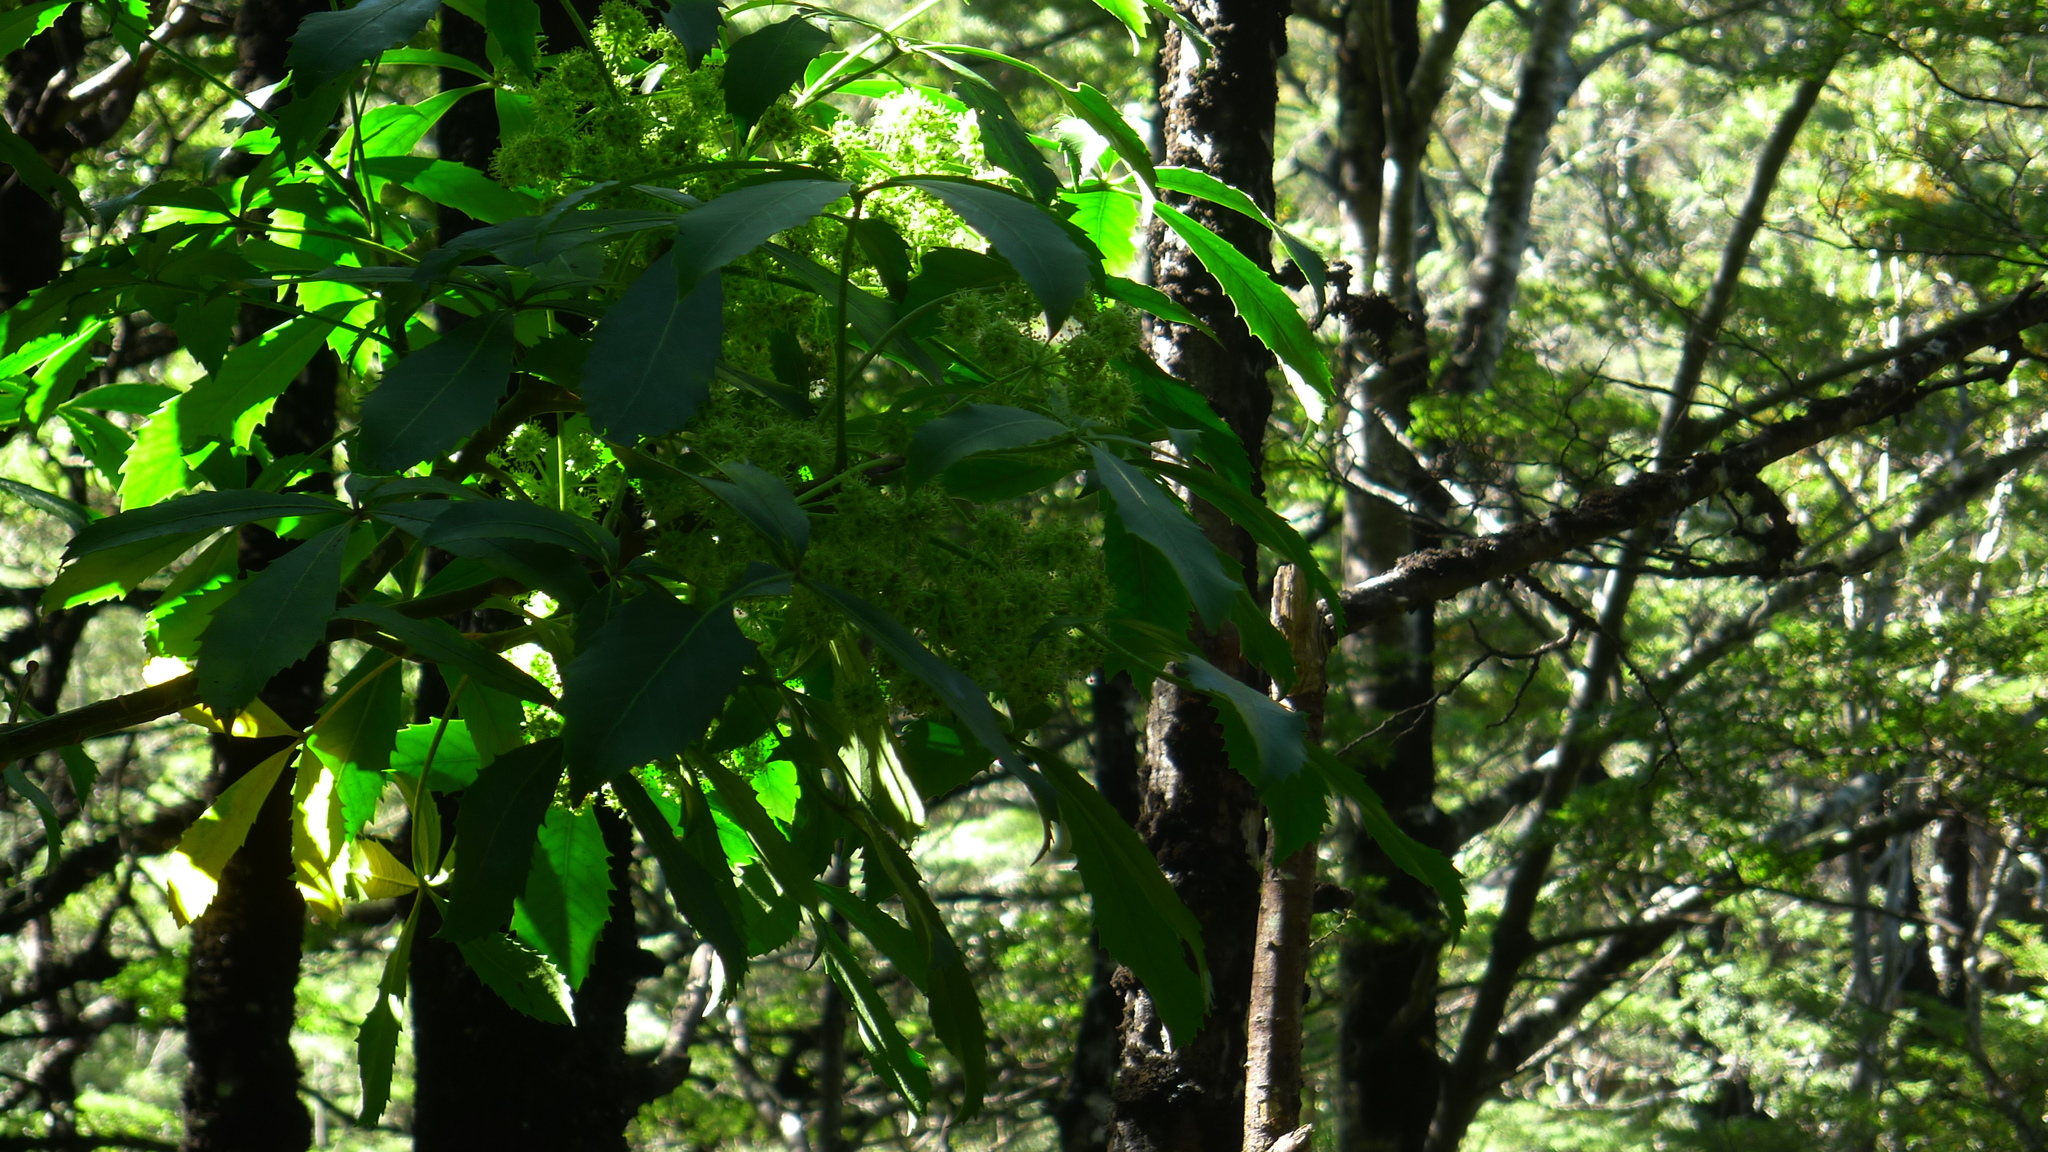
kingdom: Plantae
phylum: Tracheophyta
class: Magnoliopsida
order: Apiales
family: Araliaceae
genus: Neopanax
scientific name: Neopanax colensoi
